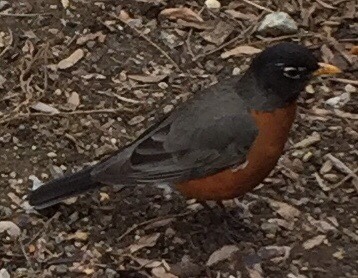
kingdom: Animalia
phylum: Chordata
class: Aves
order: Passeriformes
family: Turdidae
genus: Turdus
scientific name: Turdus migratorius
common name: American robin
